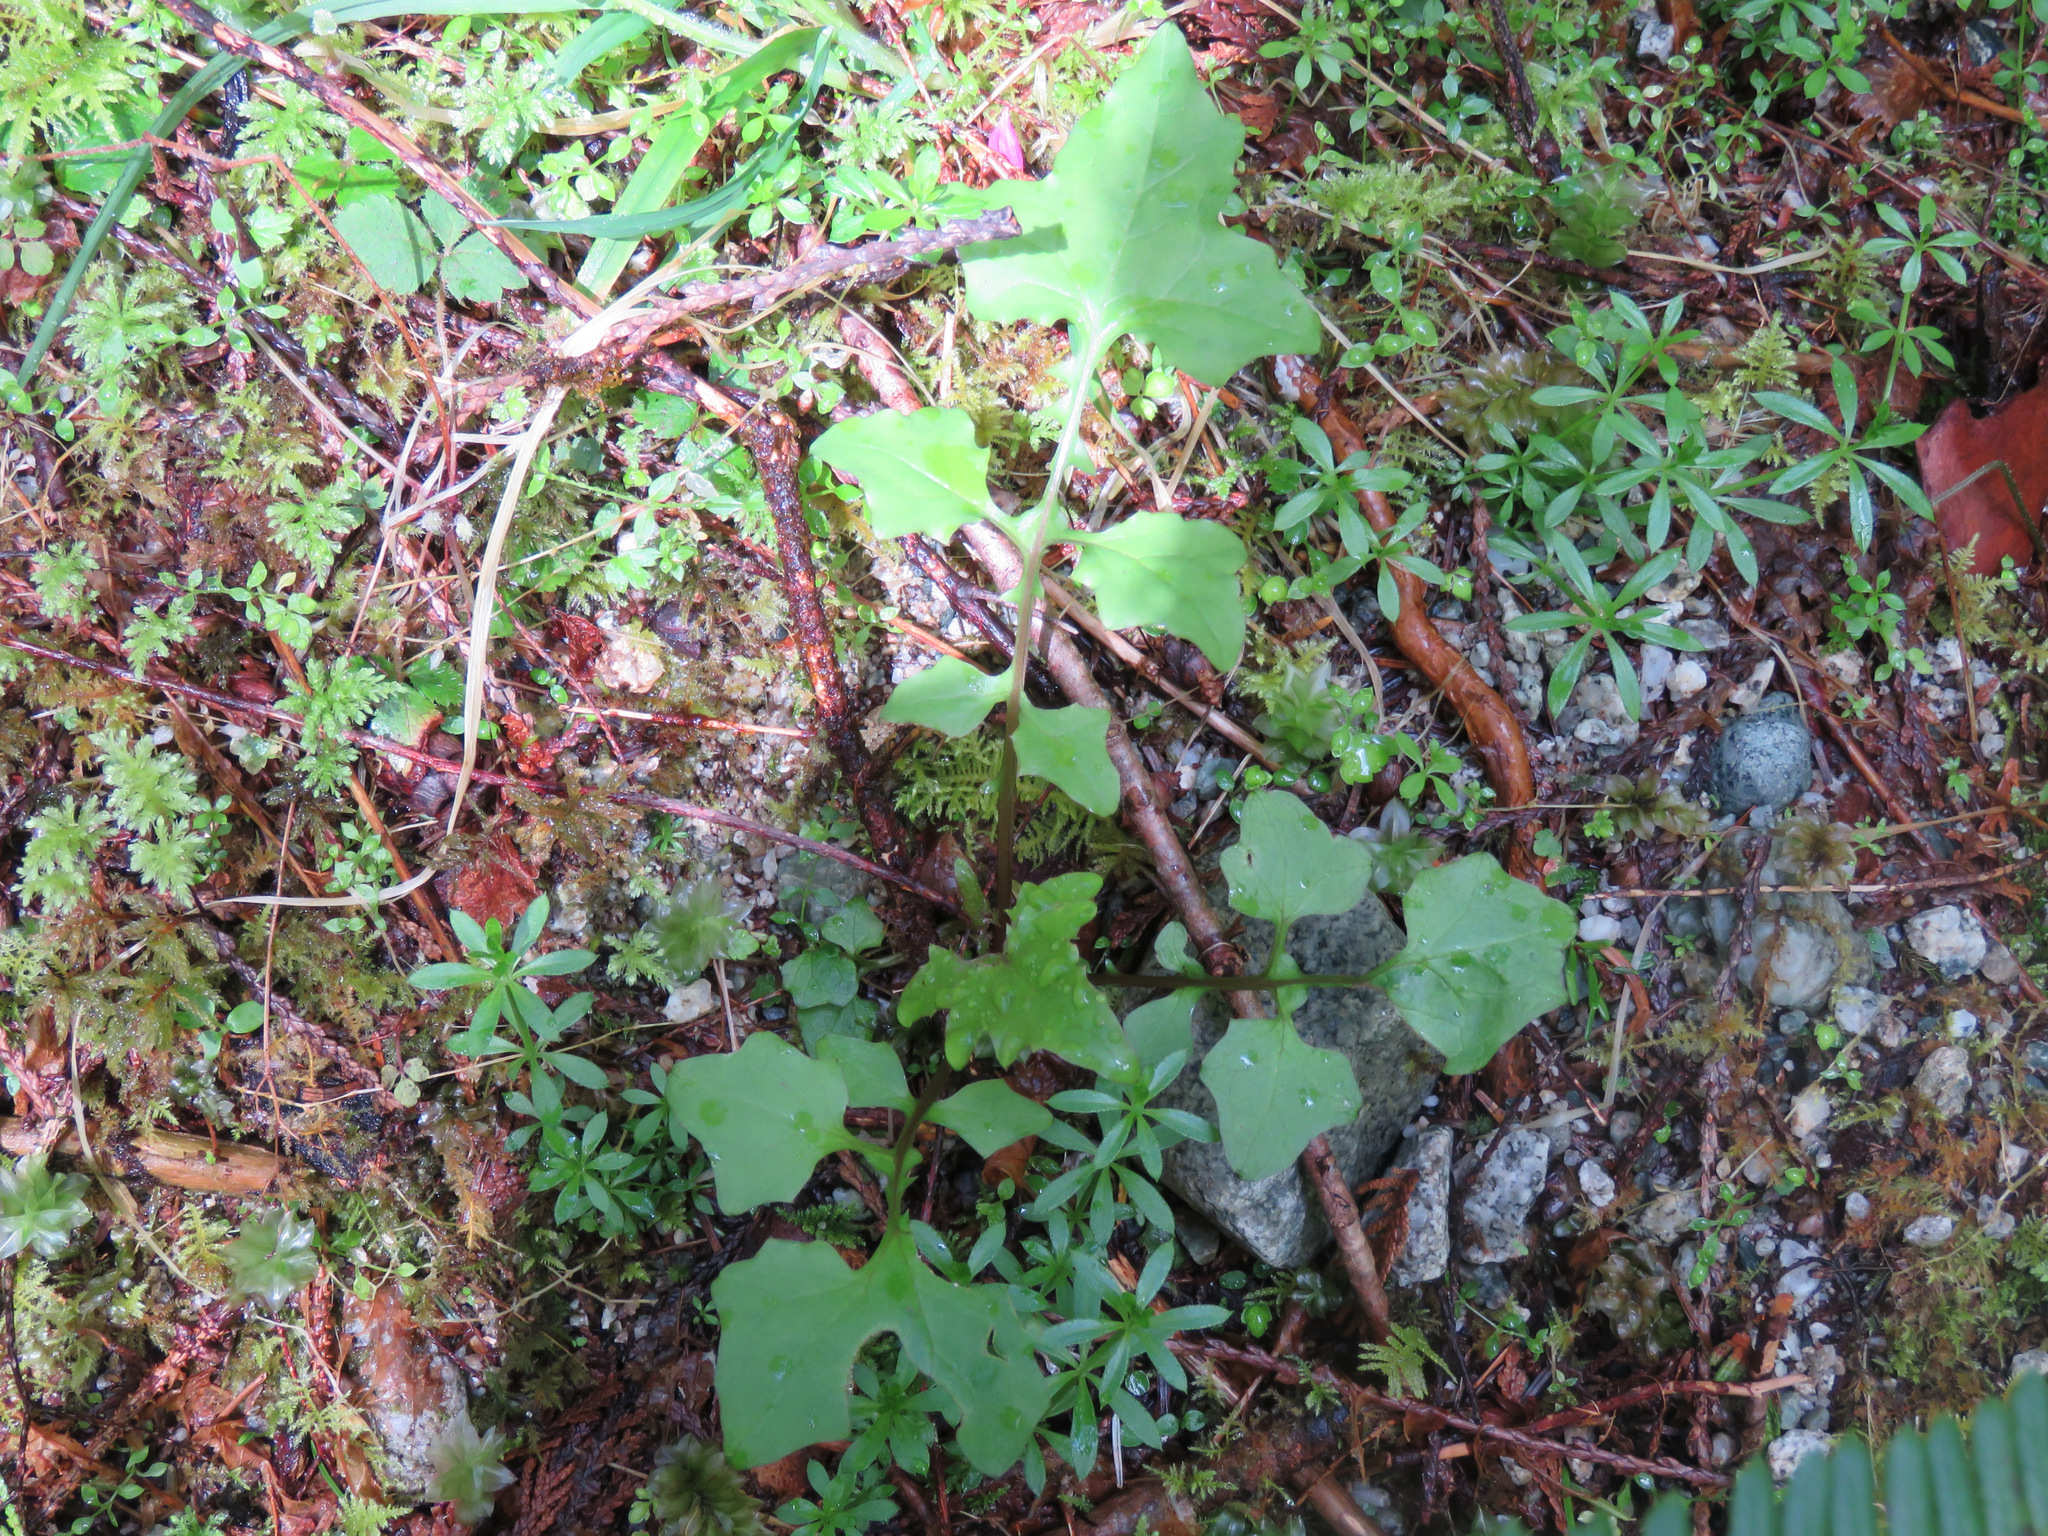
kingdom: Plantae
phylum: Tracheophyta
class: Magnoliopsida
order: Asterales
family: Asteraceae
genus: Mycelis
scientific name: Mycelis muralis
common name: Wall lettuce
